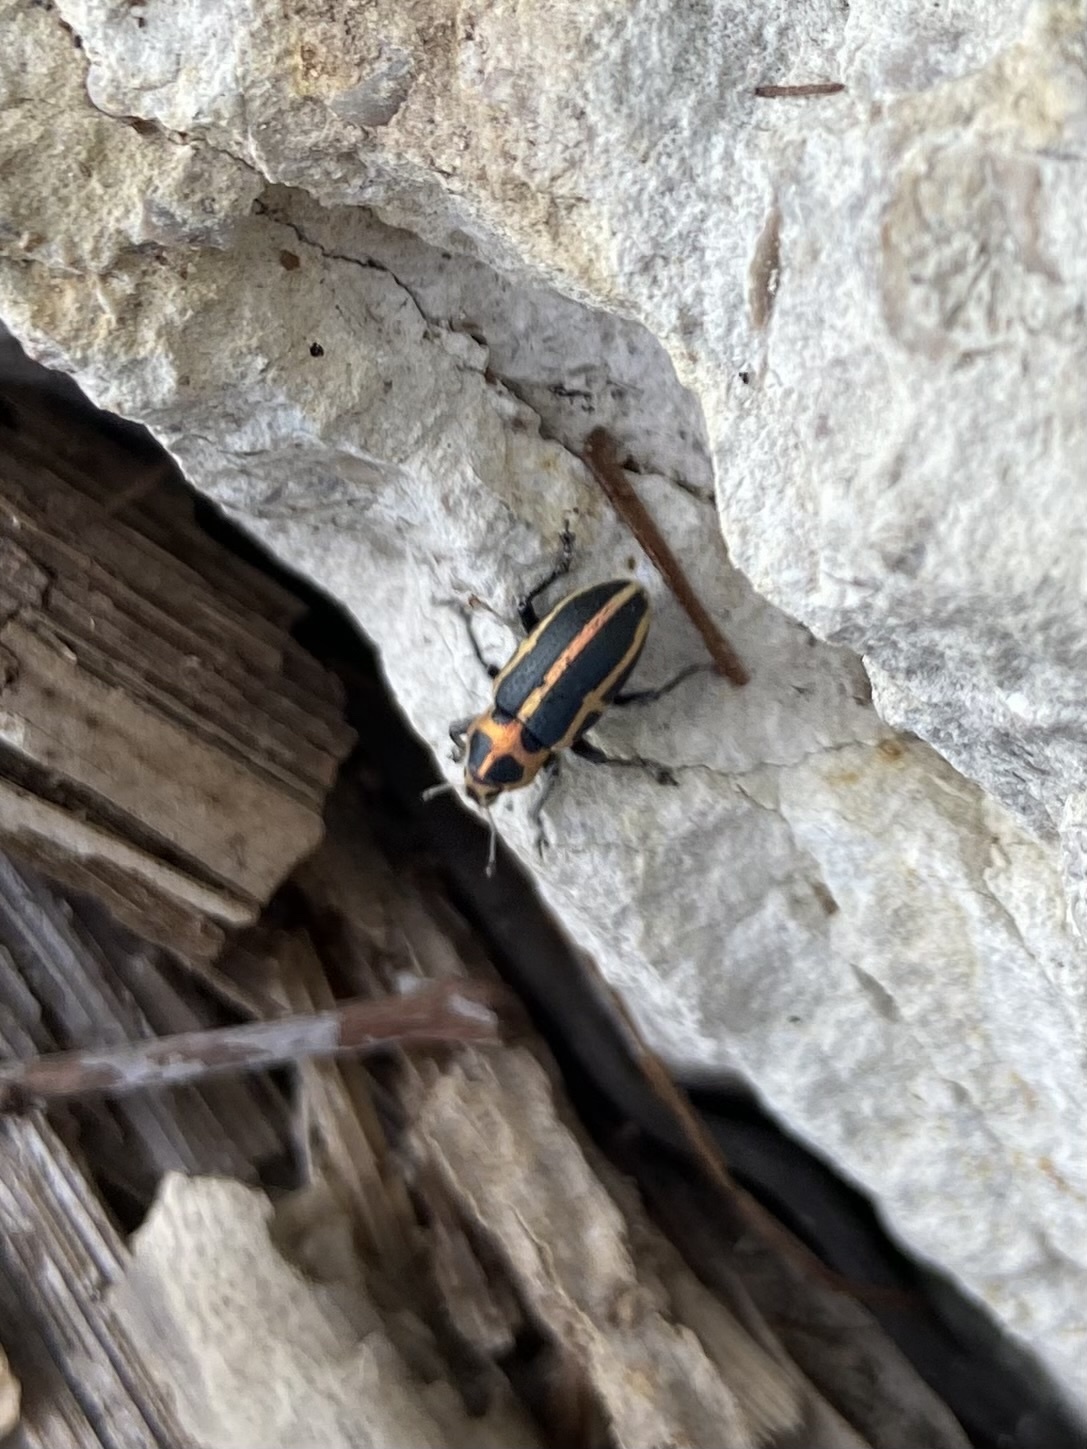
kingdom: Animalia
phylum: Arthropoda
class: Insecta
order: Coleoptera
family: Curculionidae
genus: Eudiagogus
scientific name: Eudiagogus pulcher
